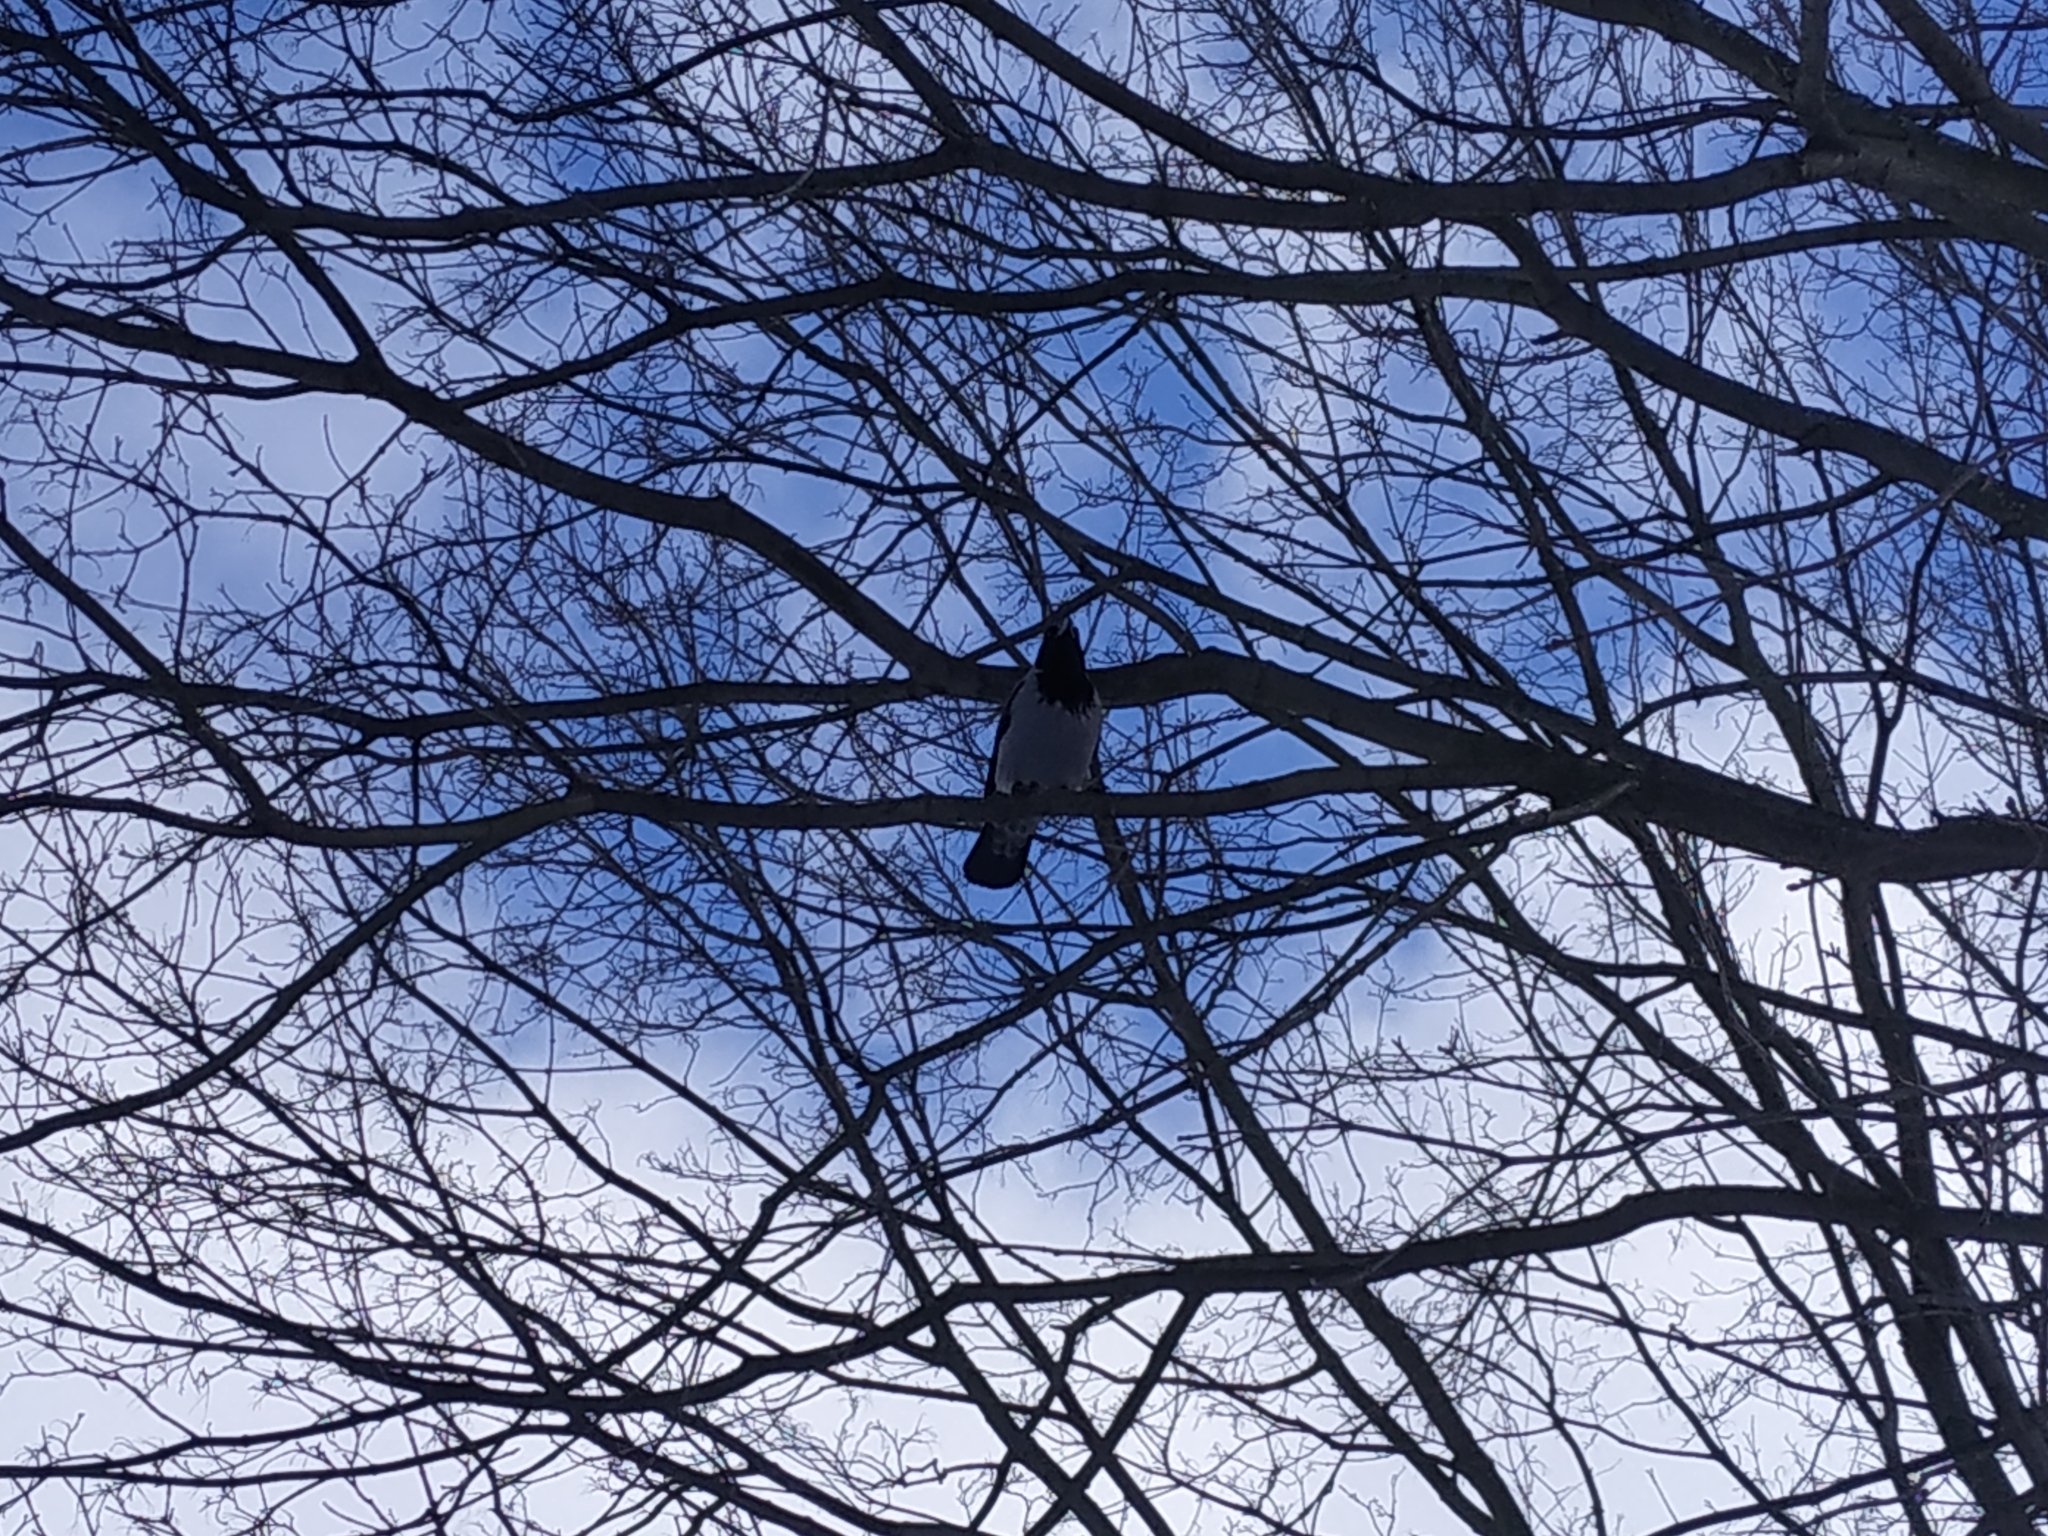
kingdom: Animalia
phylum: Chordata
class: Aves
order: Passeriformes
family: Corvidae
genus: Corvus
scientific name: Corvus cornix
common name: Hooded crow
